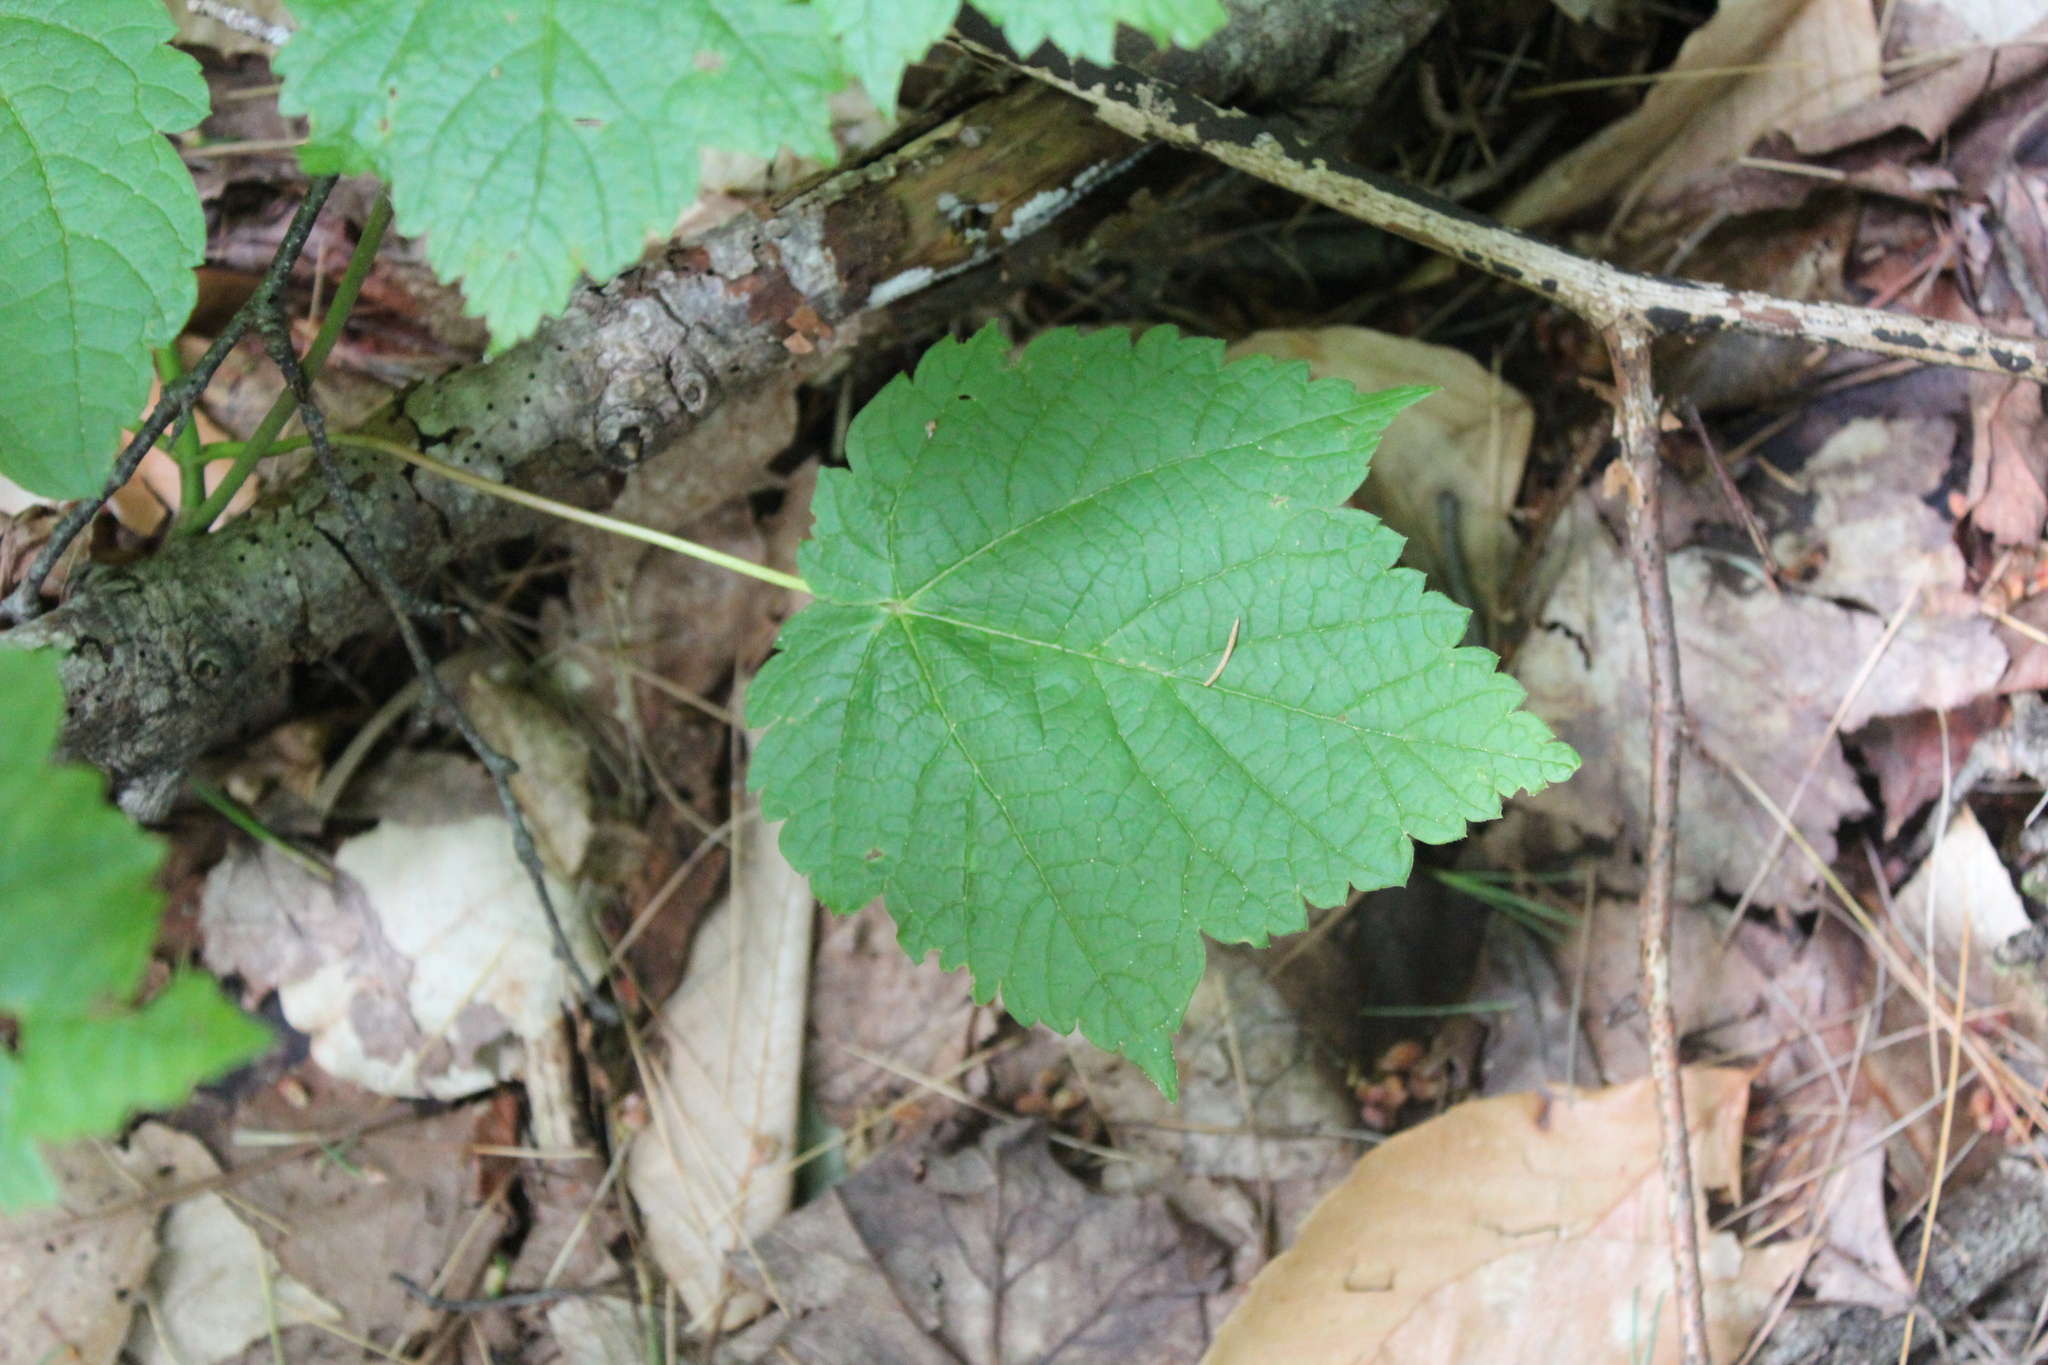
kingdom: Plantae
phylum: Tracheophyta
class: Magnoliopsida
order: Sapindales
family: Sapindaceae
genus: Acer
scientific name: Acer spicatum
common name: Mountain maple
